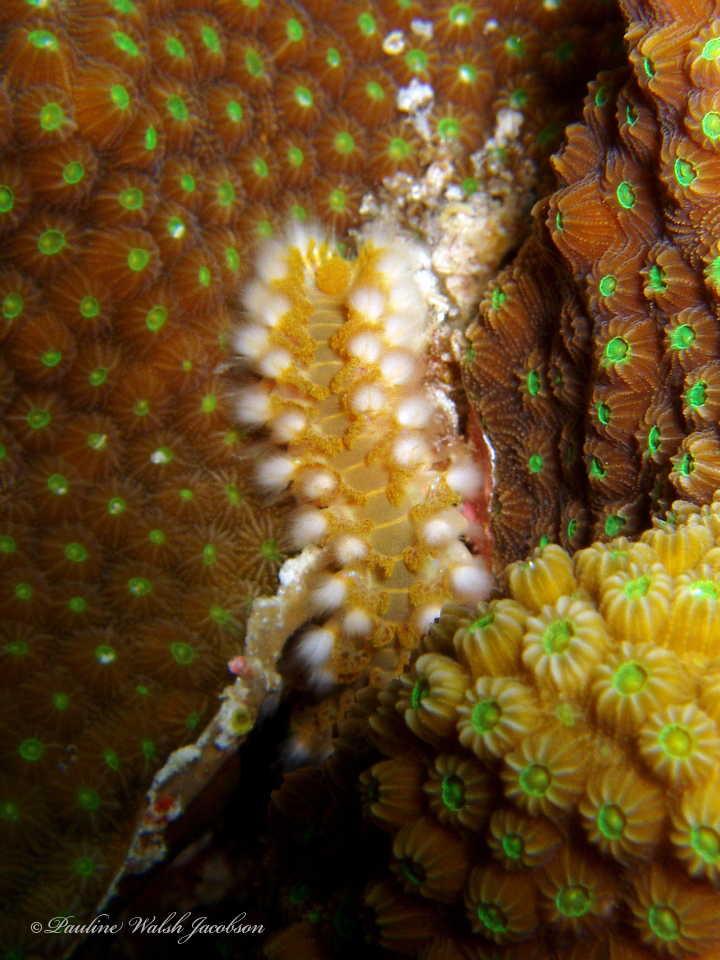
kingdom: Animalia
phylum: Annelida
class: Polychaeta
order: Amphinomida
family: Amphinomidae
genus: Hermodice
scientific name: Hermodice carunculata
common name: Bearded fireworm
